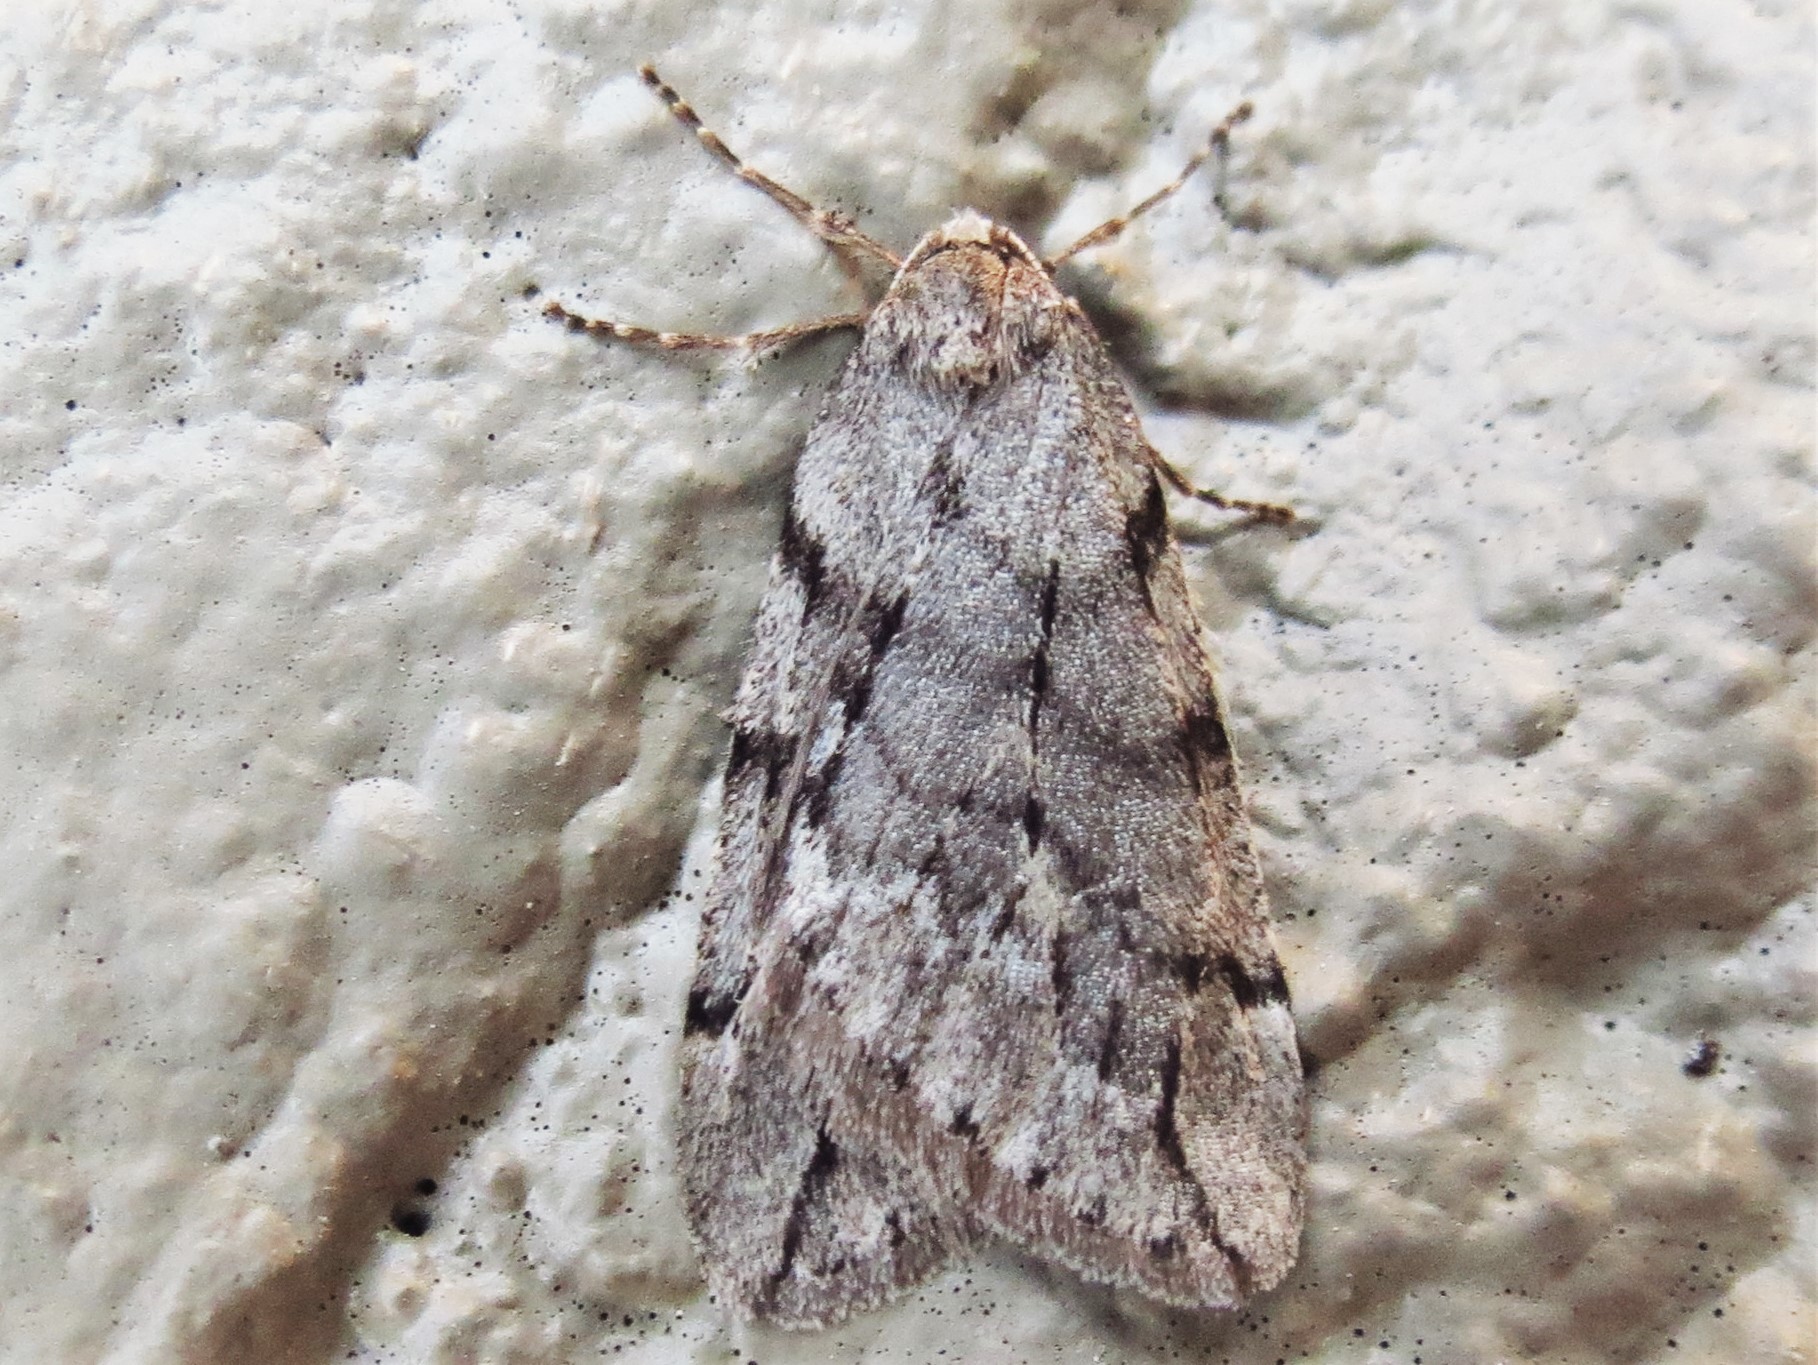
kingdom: Animalia
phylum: Arthropoda
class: Insecta
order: Lepidoptera
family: Geometridae
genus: Paleacrita
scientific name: Paleacrita vernata
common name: Spring cankerworm
